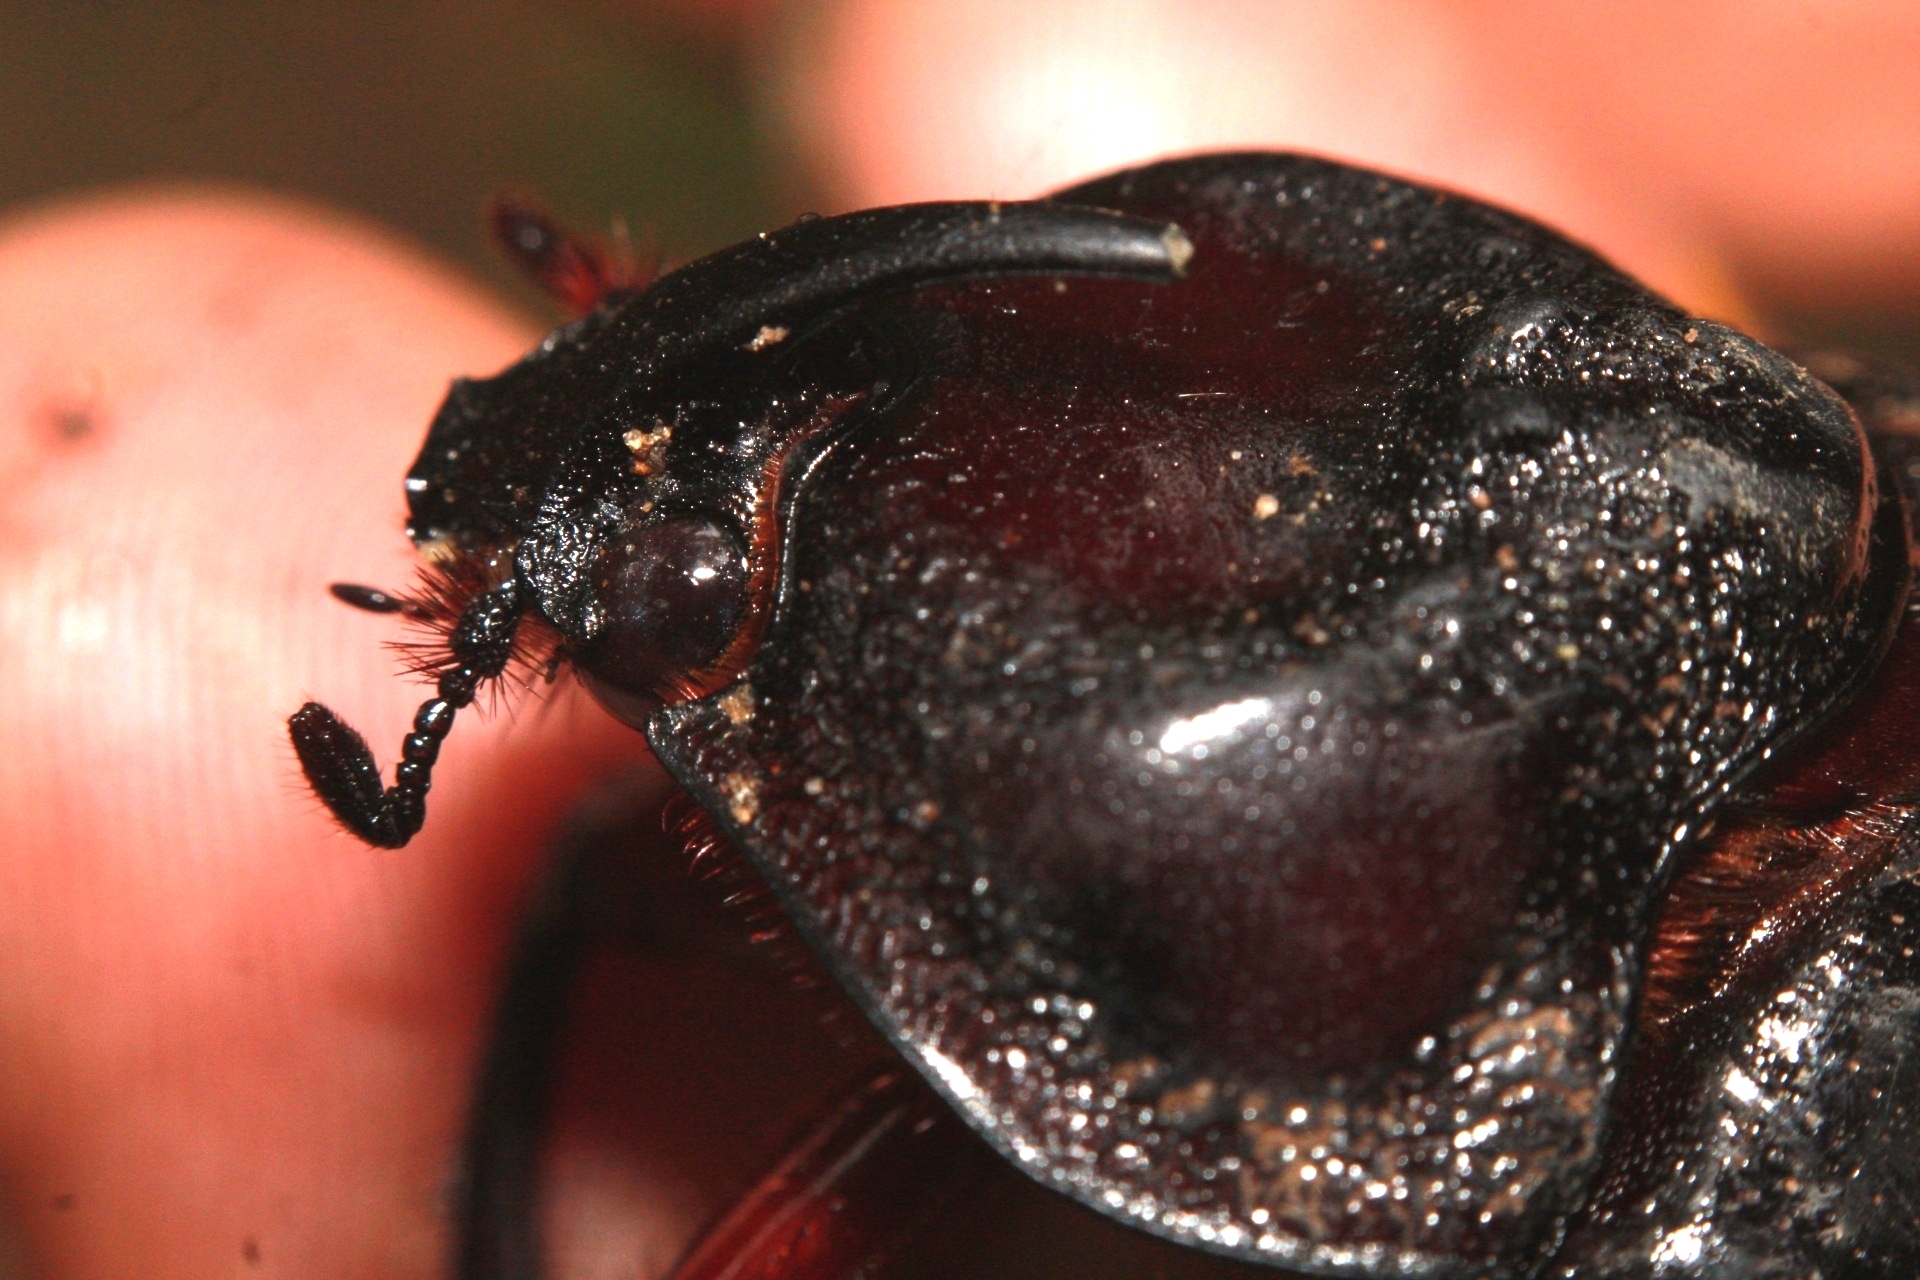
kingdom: Animalia
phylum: Arthropoda
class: Insecta
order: Coleoptera
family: Scarabaeidae
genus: Enema
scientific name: Enema pan
